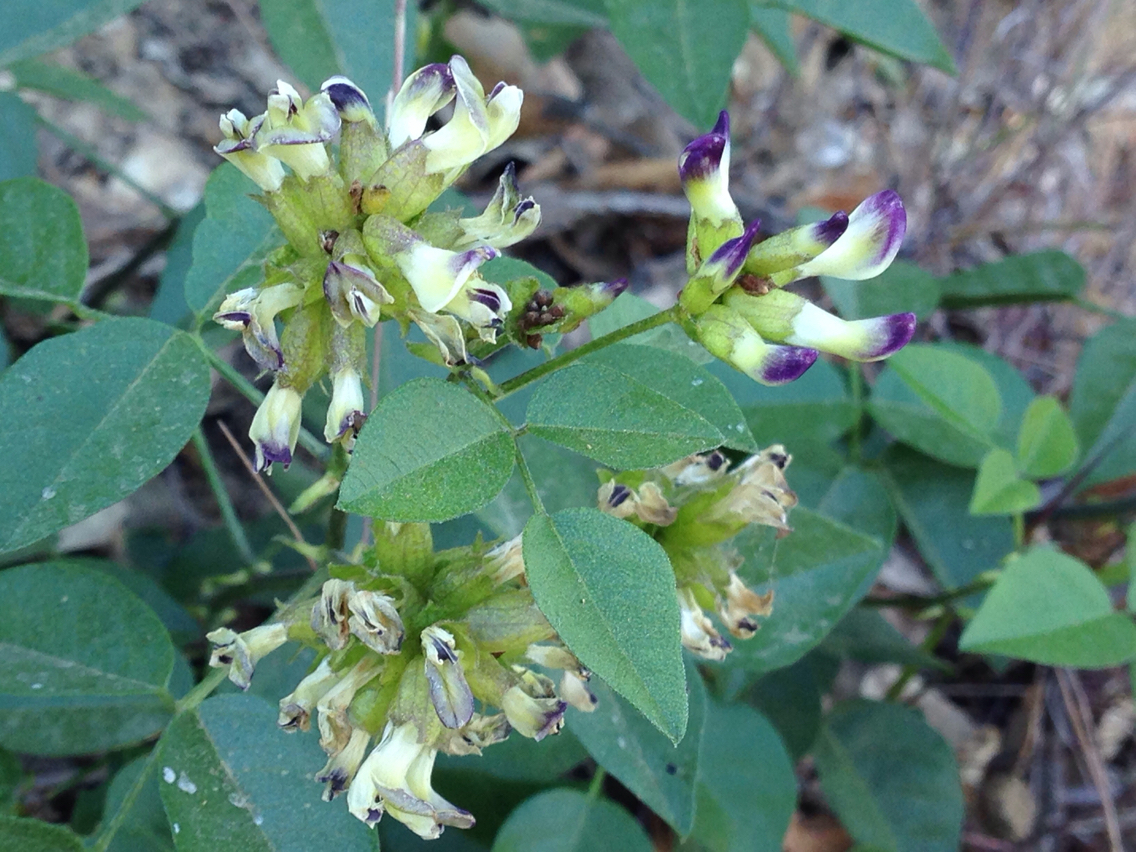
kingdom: Plantae
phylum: Tracheophyta
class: Magnoliopsida
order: Fabales
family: Fabaceae
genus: Rupertia
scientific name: Rupertia physodes
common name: California-tea
